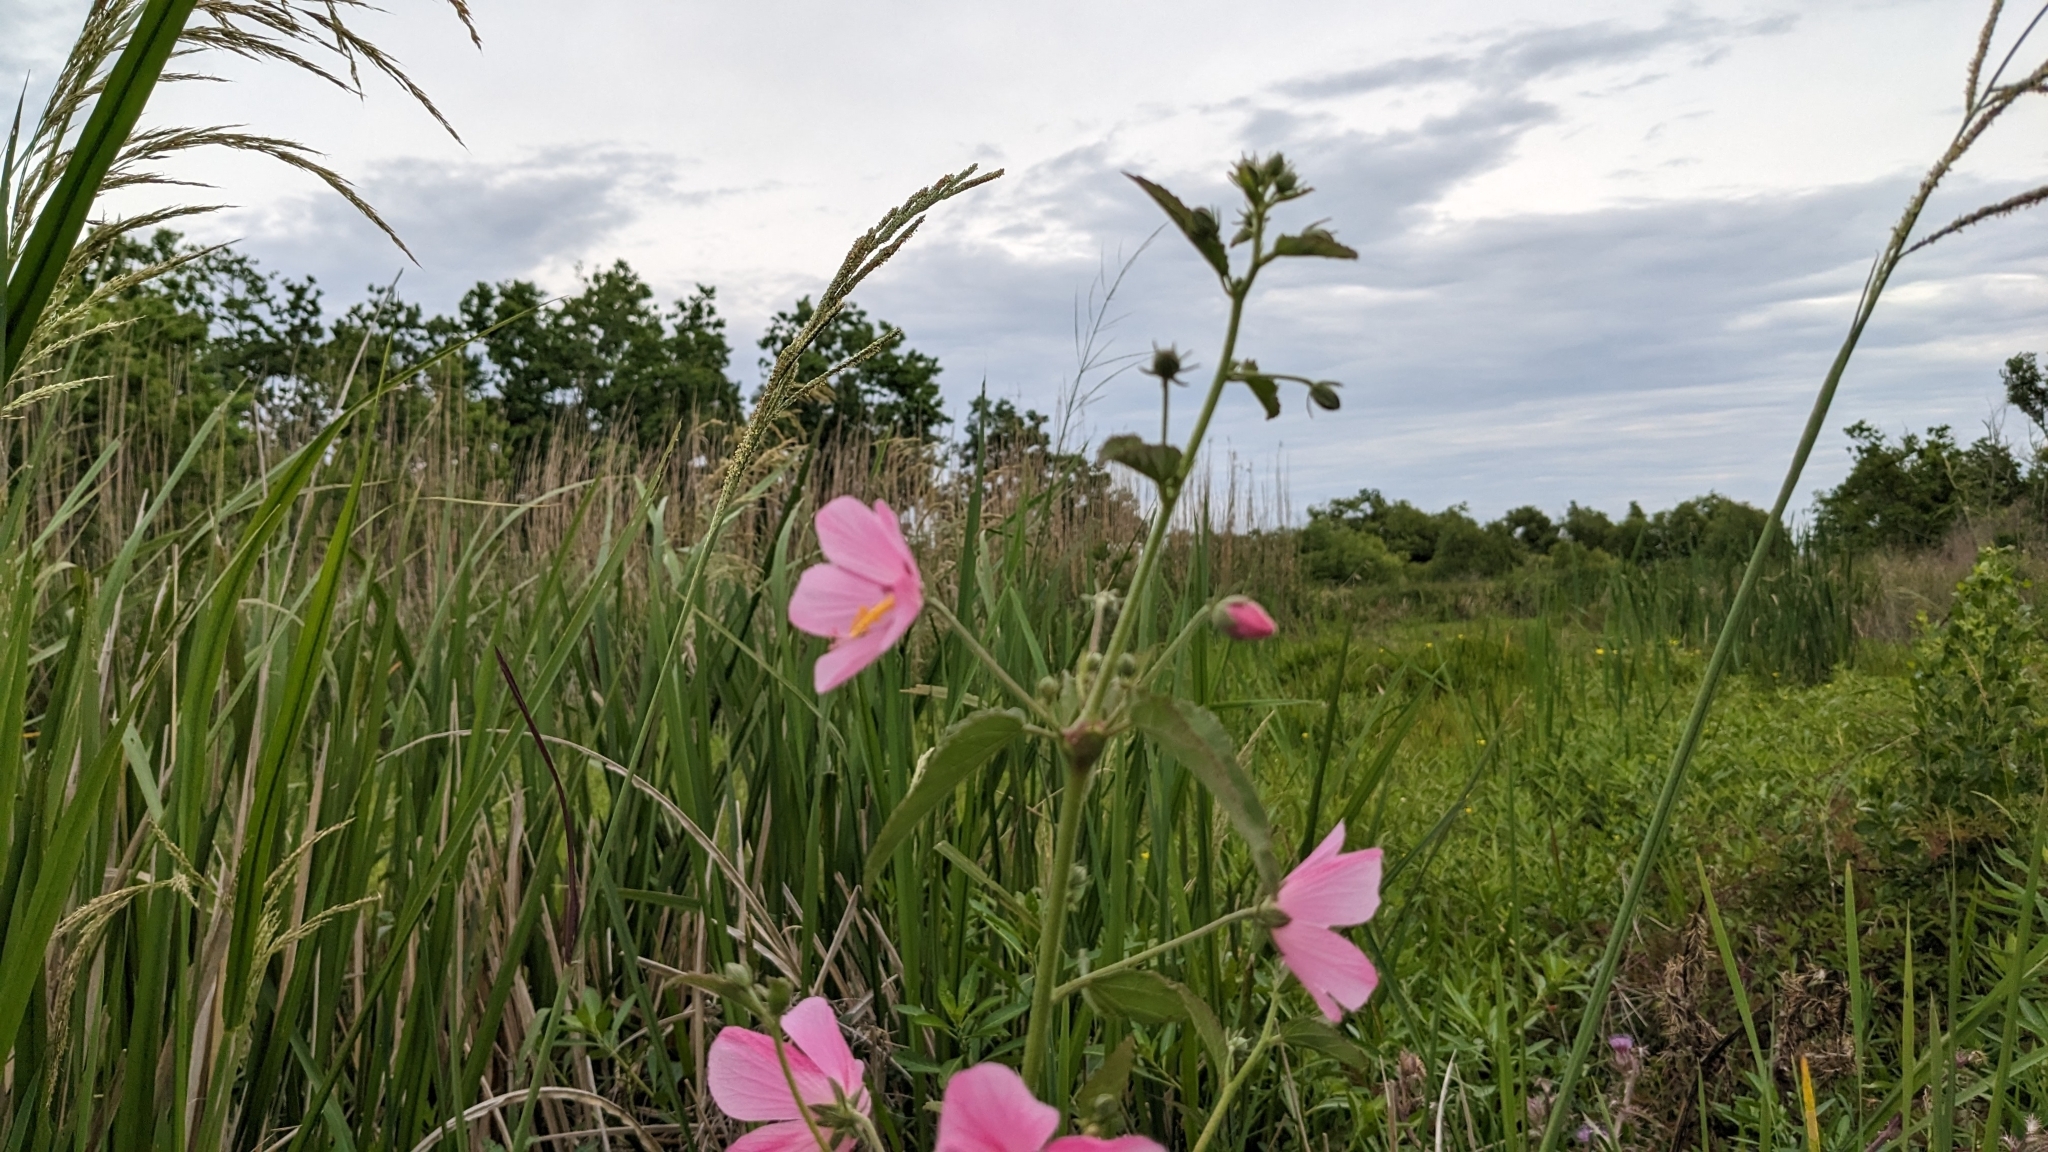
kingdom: Plantae
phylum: Tracheophyta
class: Magnoliopsida
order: Malvales
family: Malvaceae
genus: Kosteletzkya
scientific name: Kosteletzkya pentacarpos
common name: Virginia saltmarsh mallow
